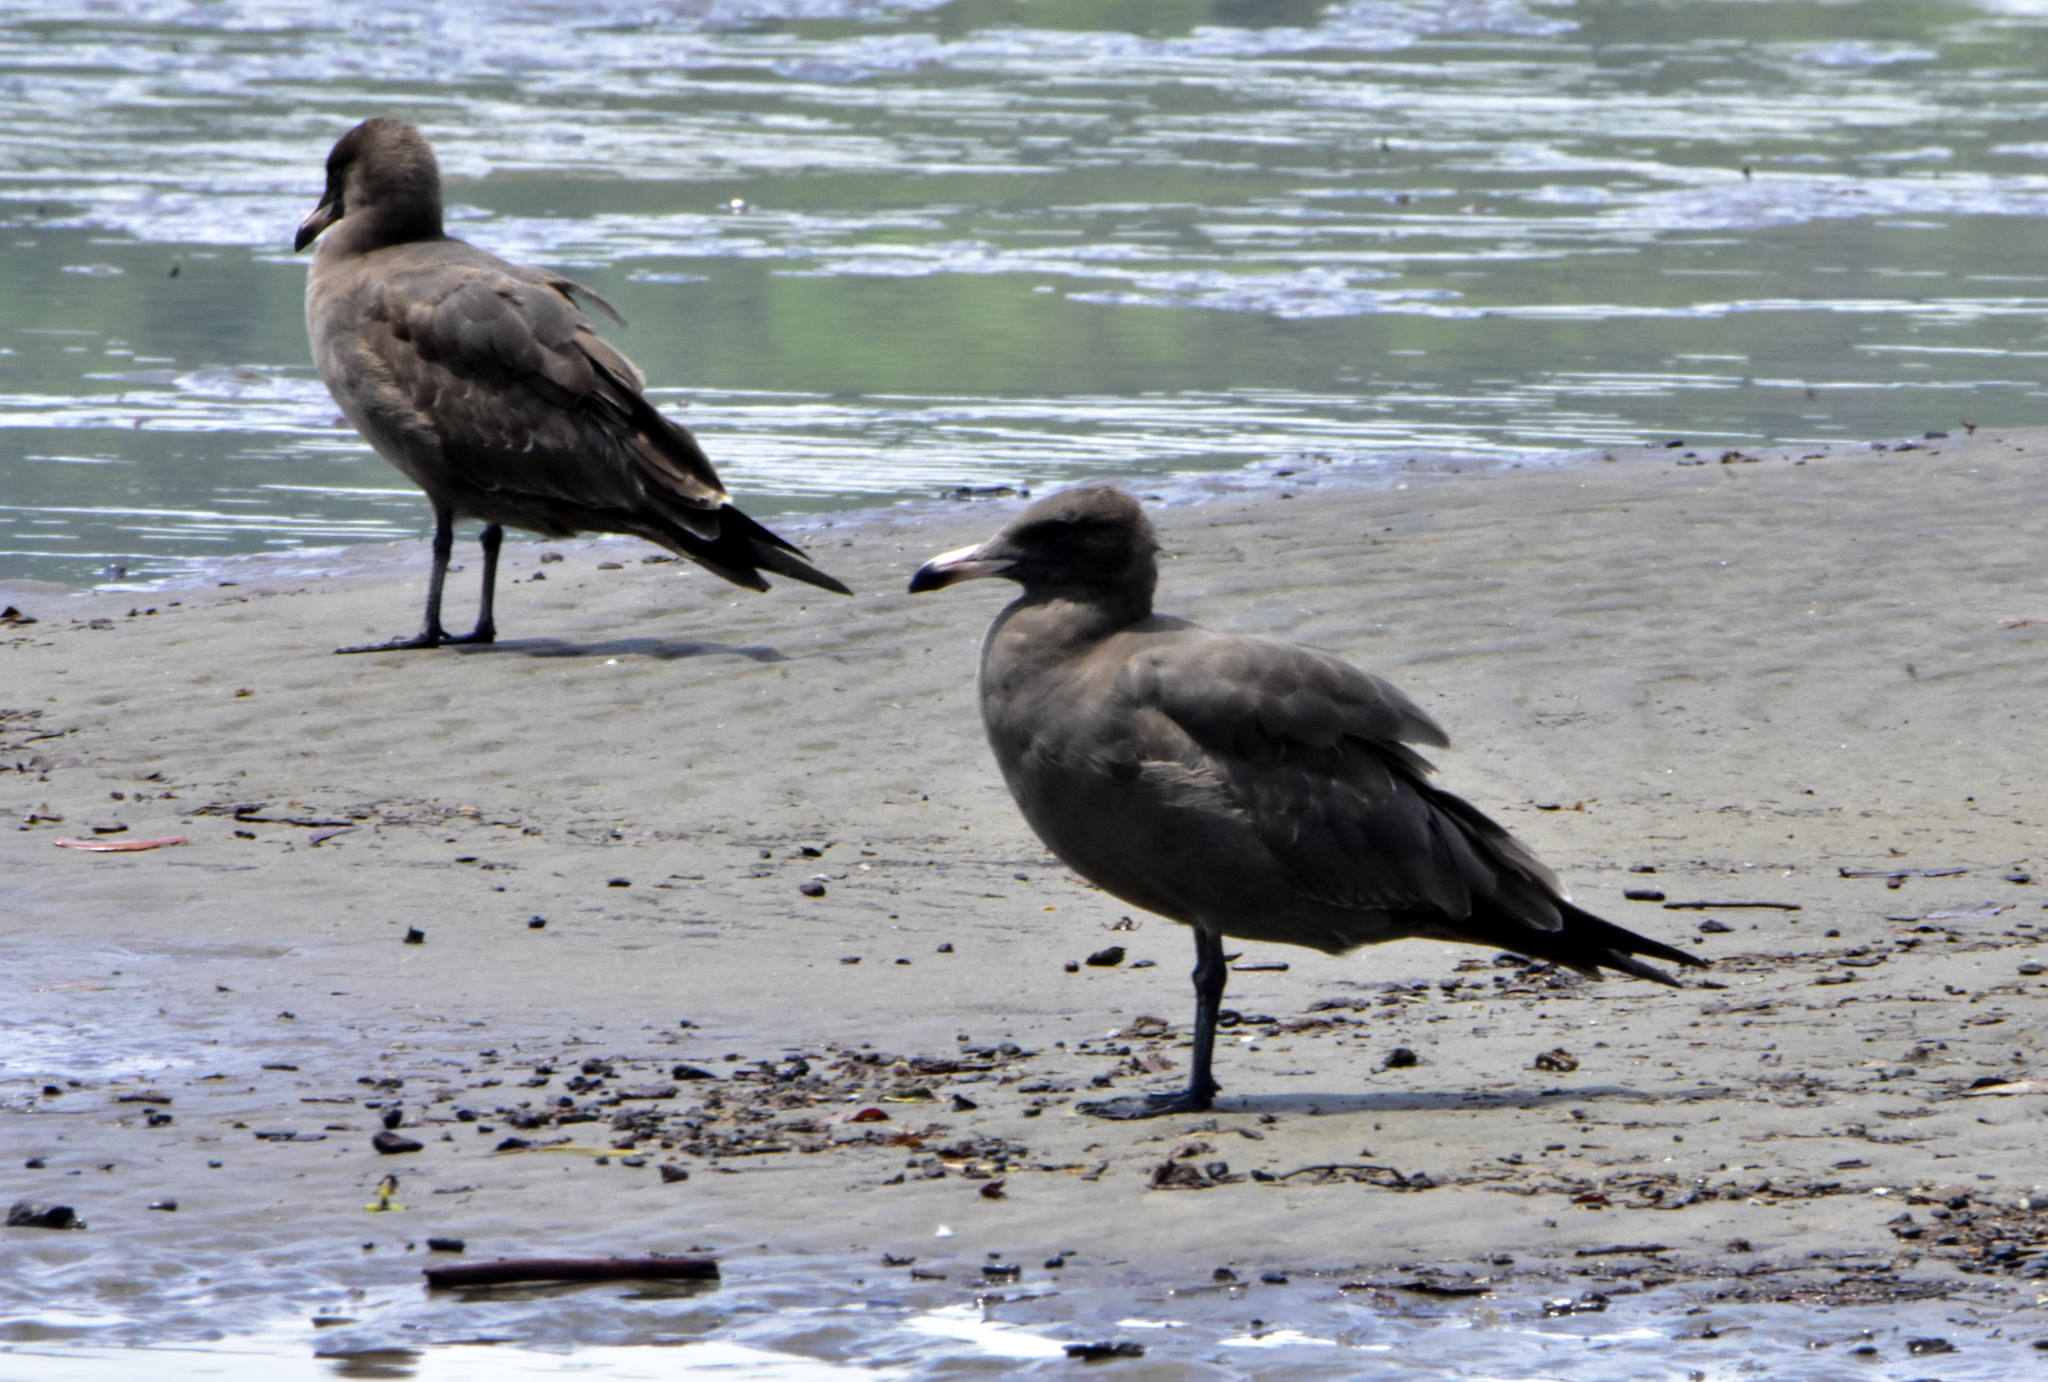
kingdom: Animalia
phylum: Chordata
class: Aves
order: Charadriiformes
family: Laridae
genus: Larus
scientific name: Larus heermanni
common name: Heermann's gull
